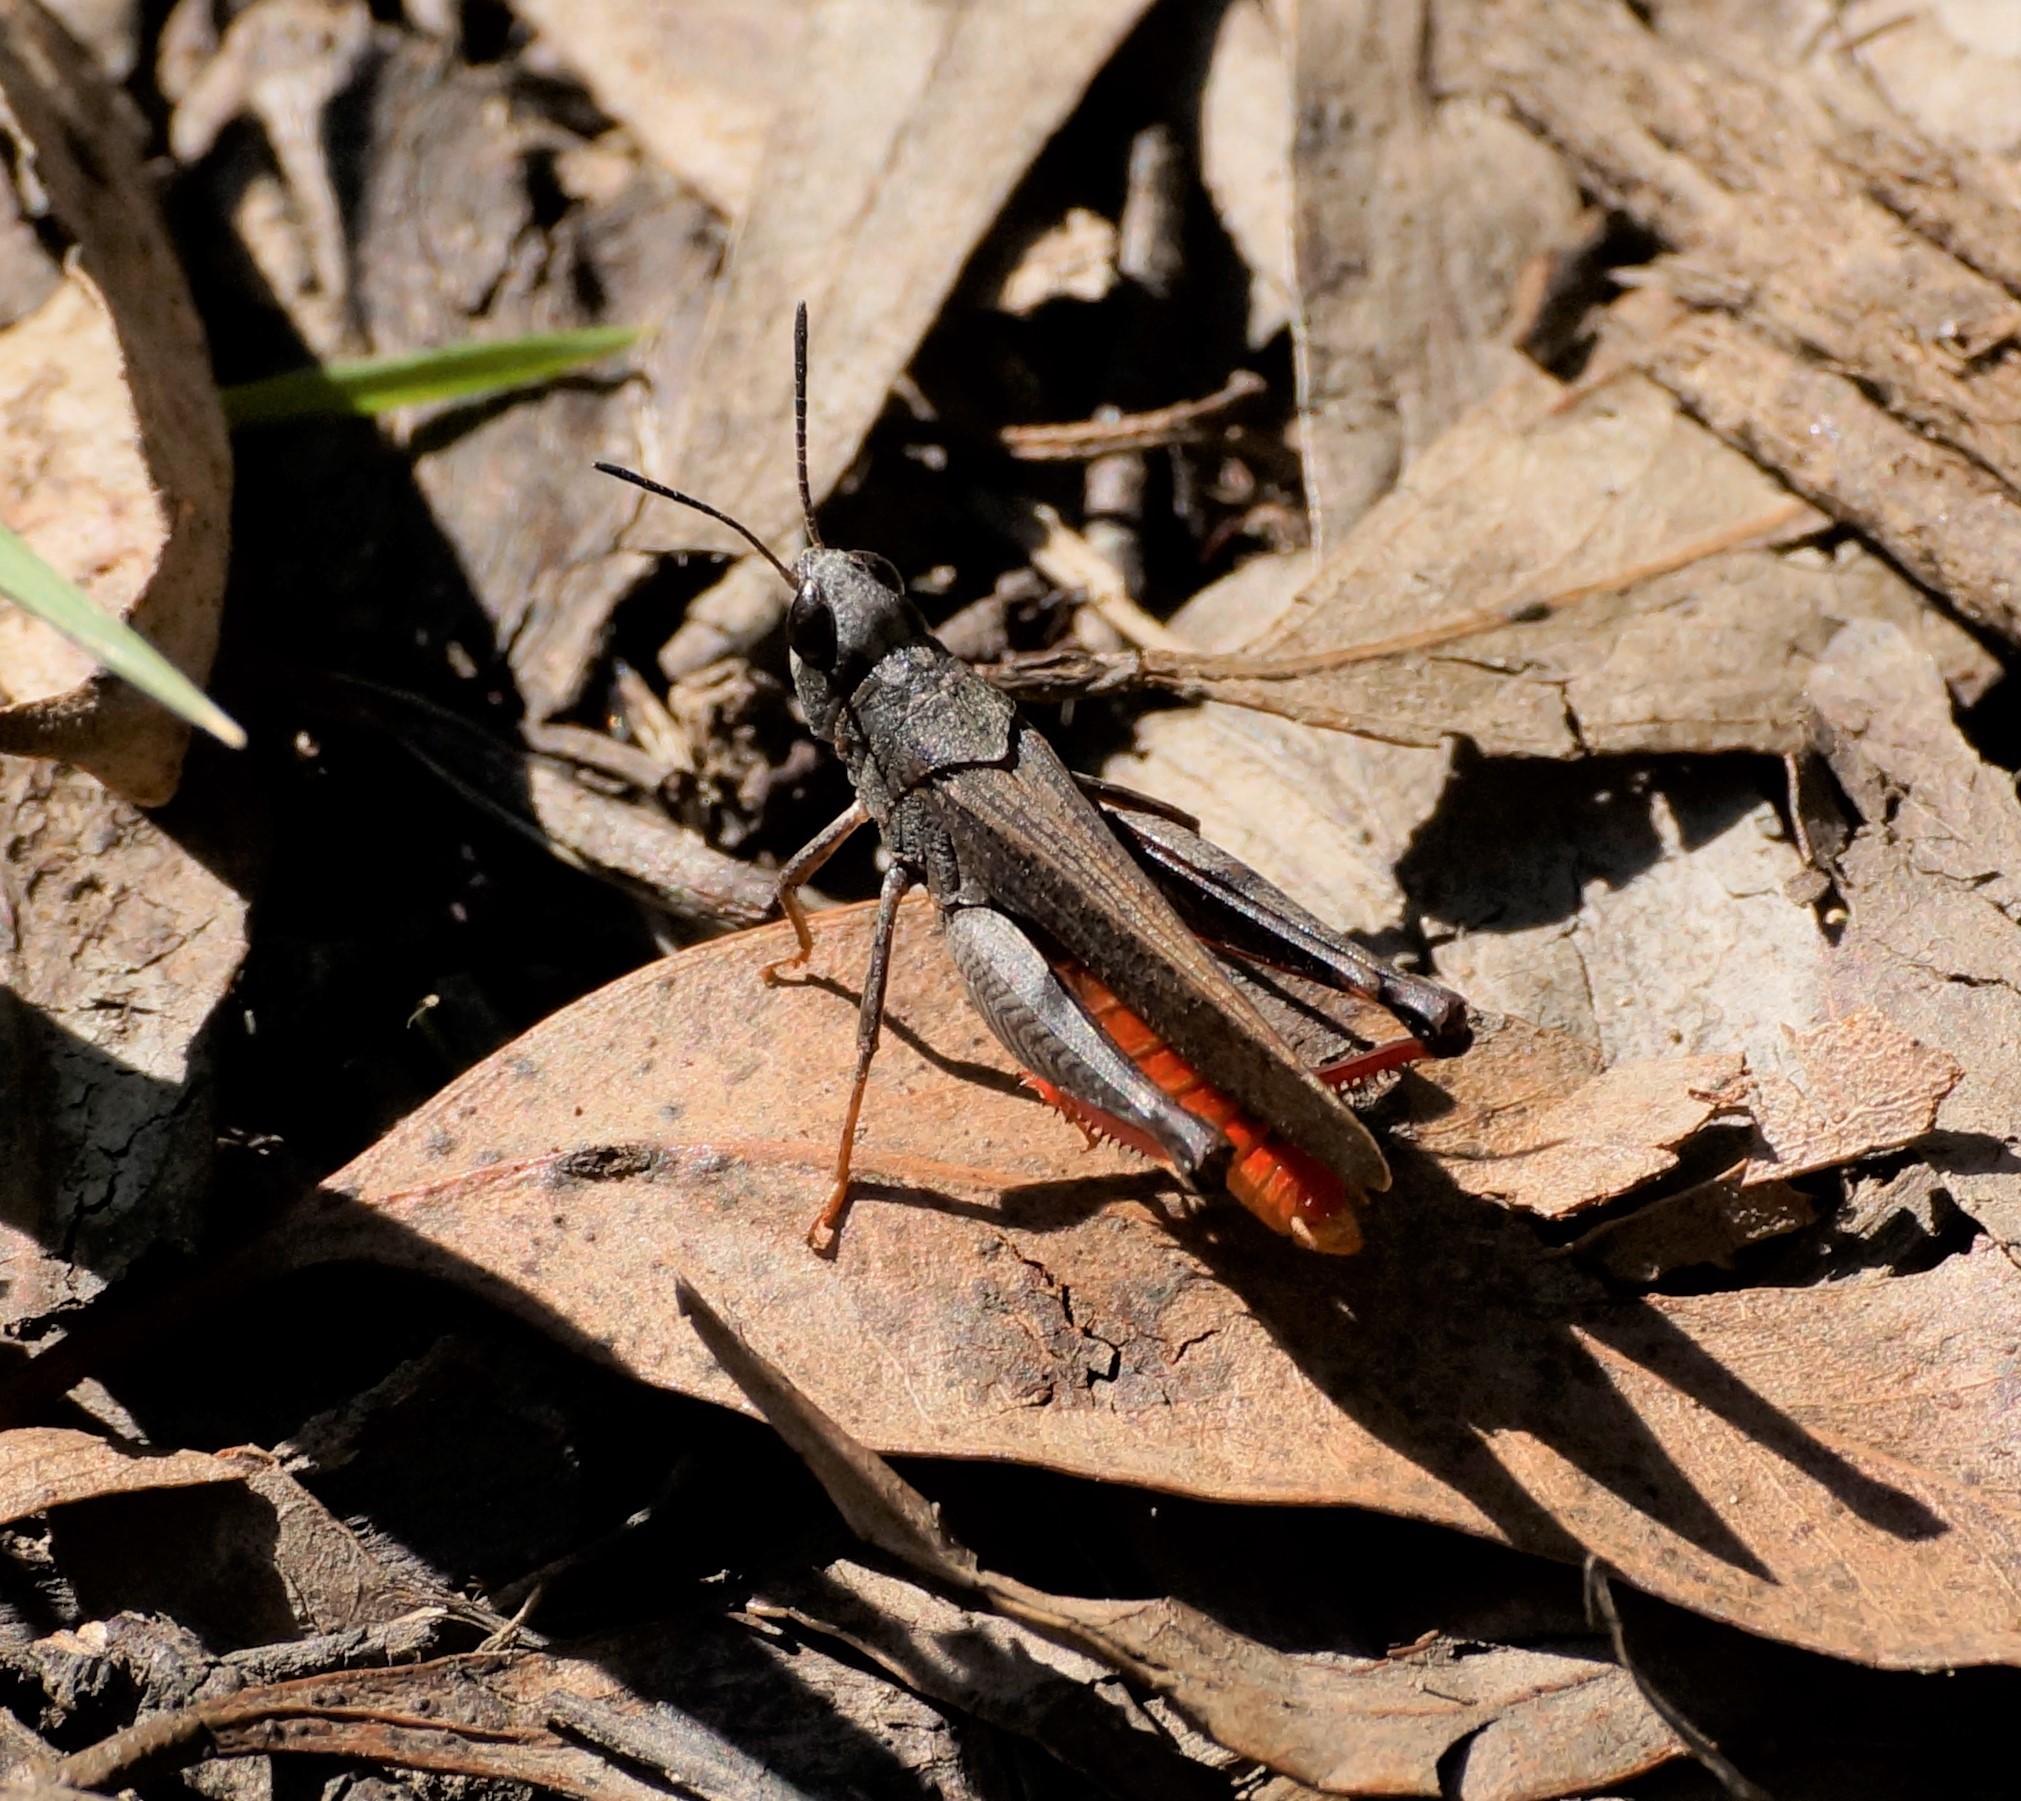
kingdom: Animalia
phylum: Arthropoda
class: Insecta
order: Orthoptera
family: Acrididae
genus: Cryptobothrus
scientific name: Cryptobothrus chrysophorus
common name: Golden bandwing
